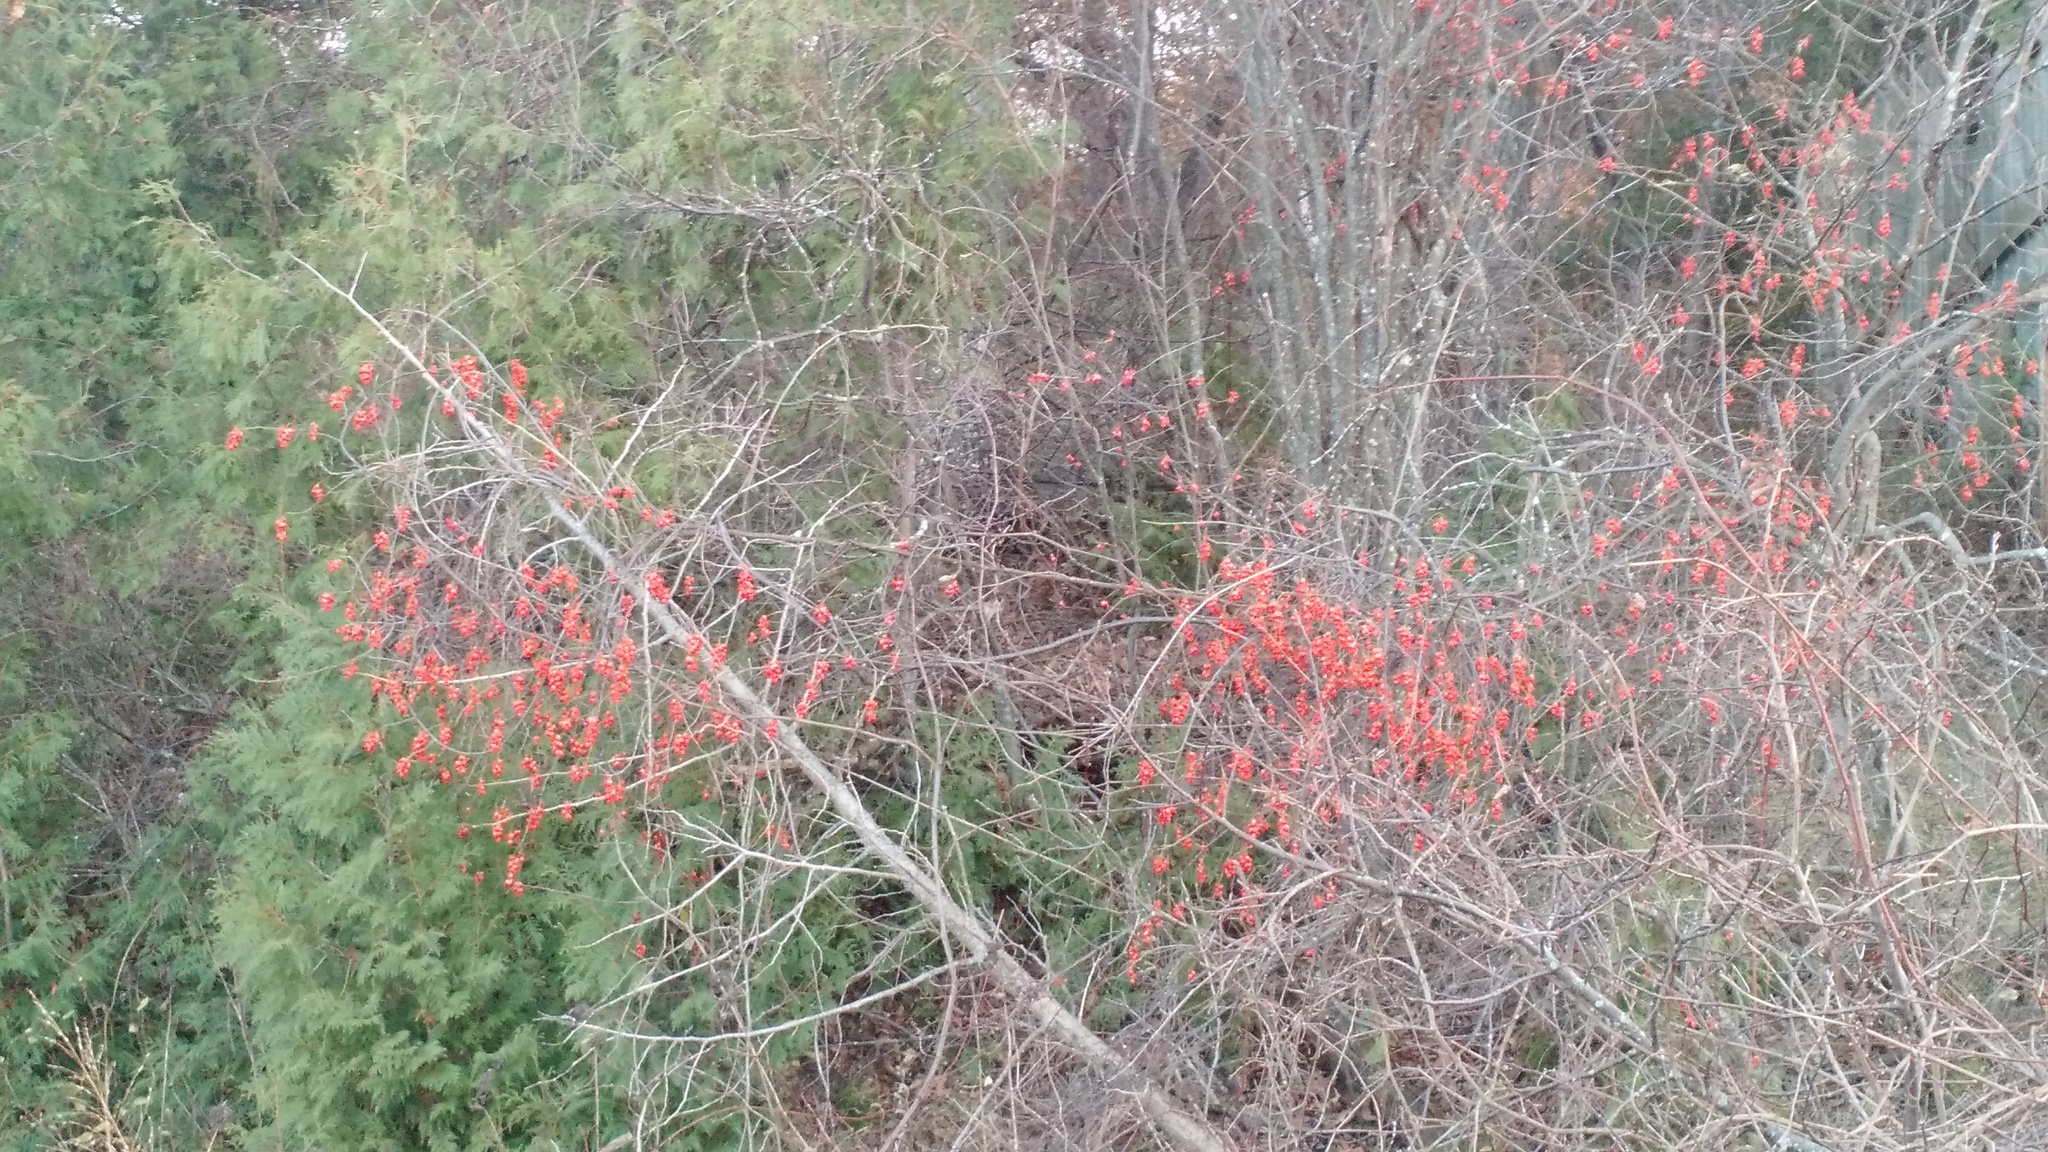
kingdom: Plantae
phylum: Tracheophyta
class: Magnoliopsida
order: Celastrales
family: Celastraceae
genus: Celastrus
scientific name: Celastrus scandens
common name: American bittersweet
